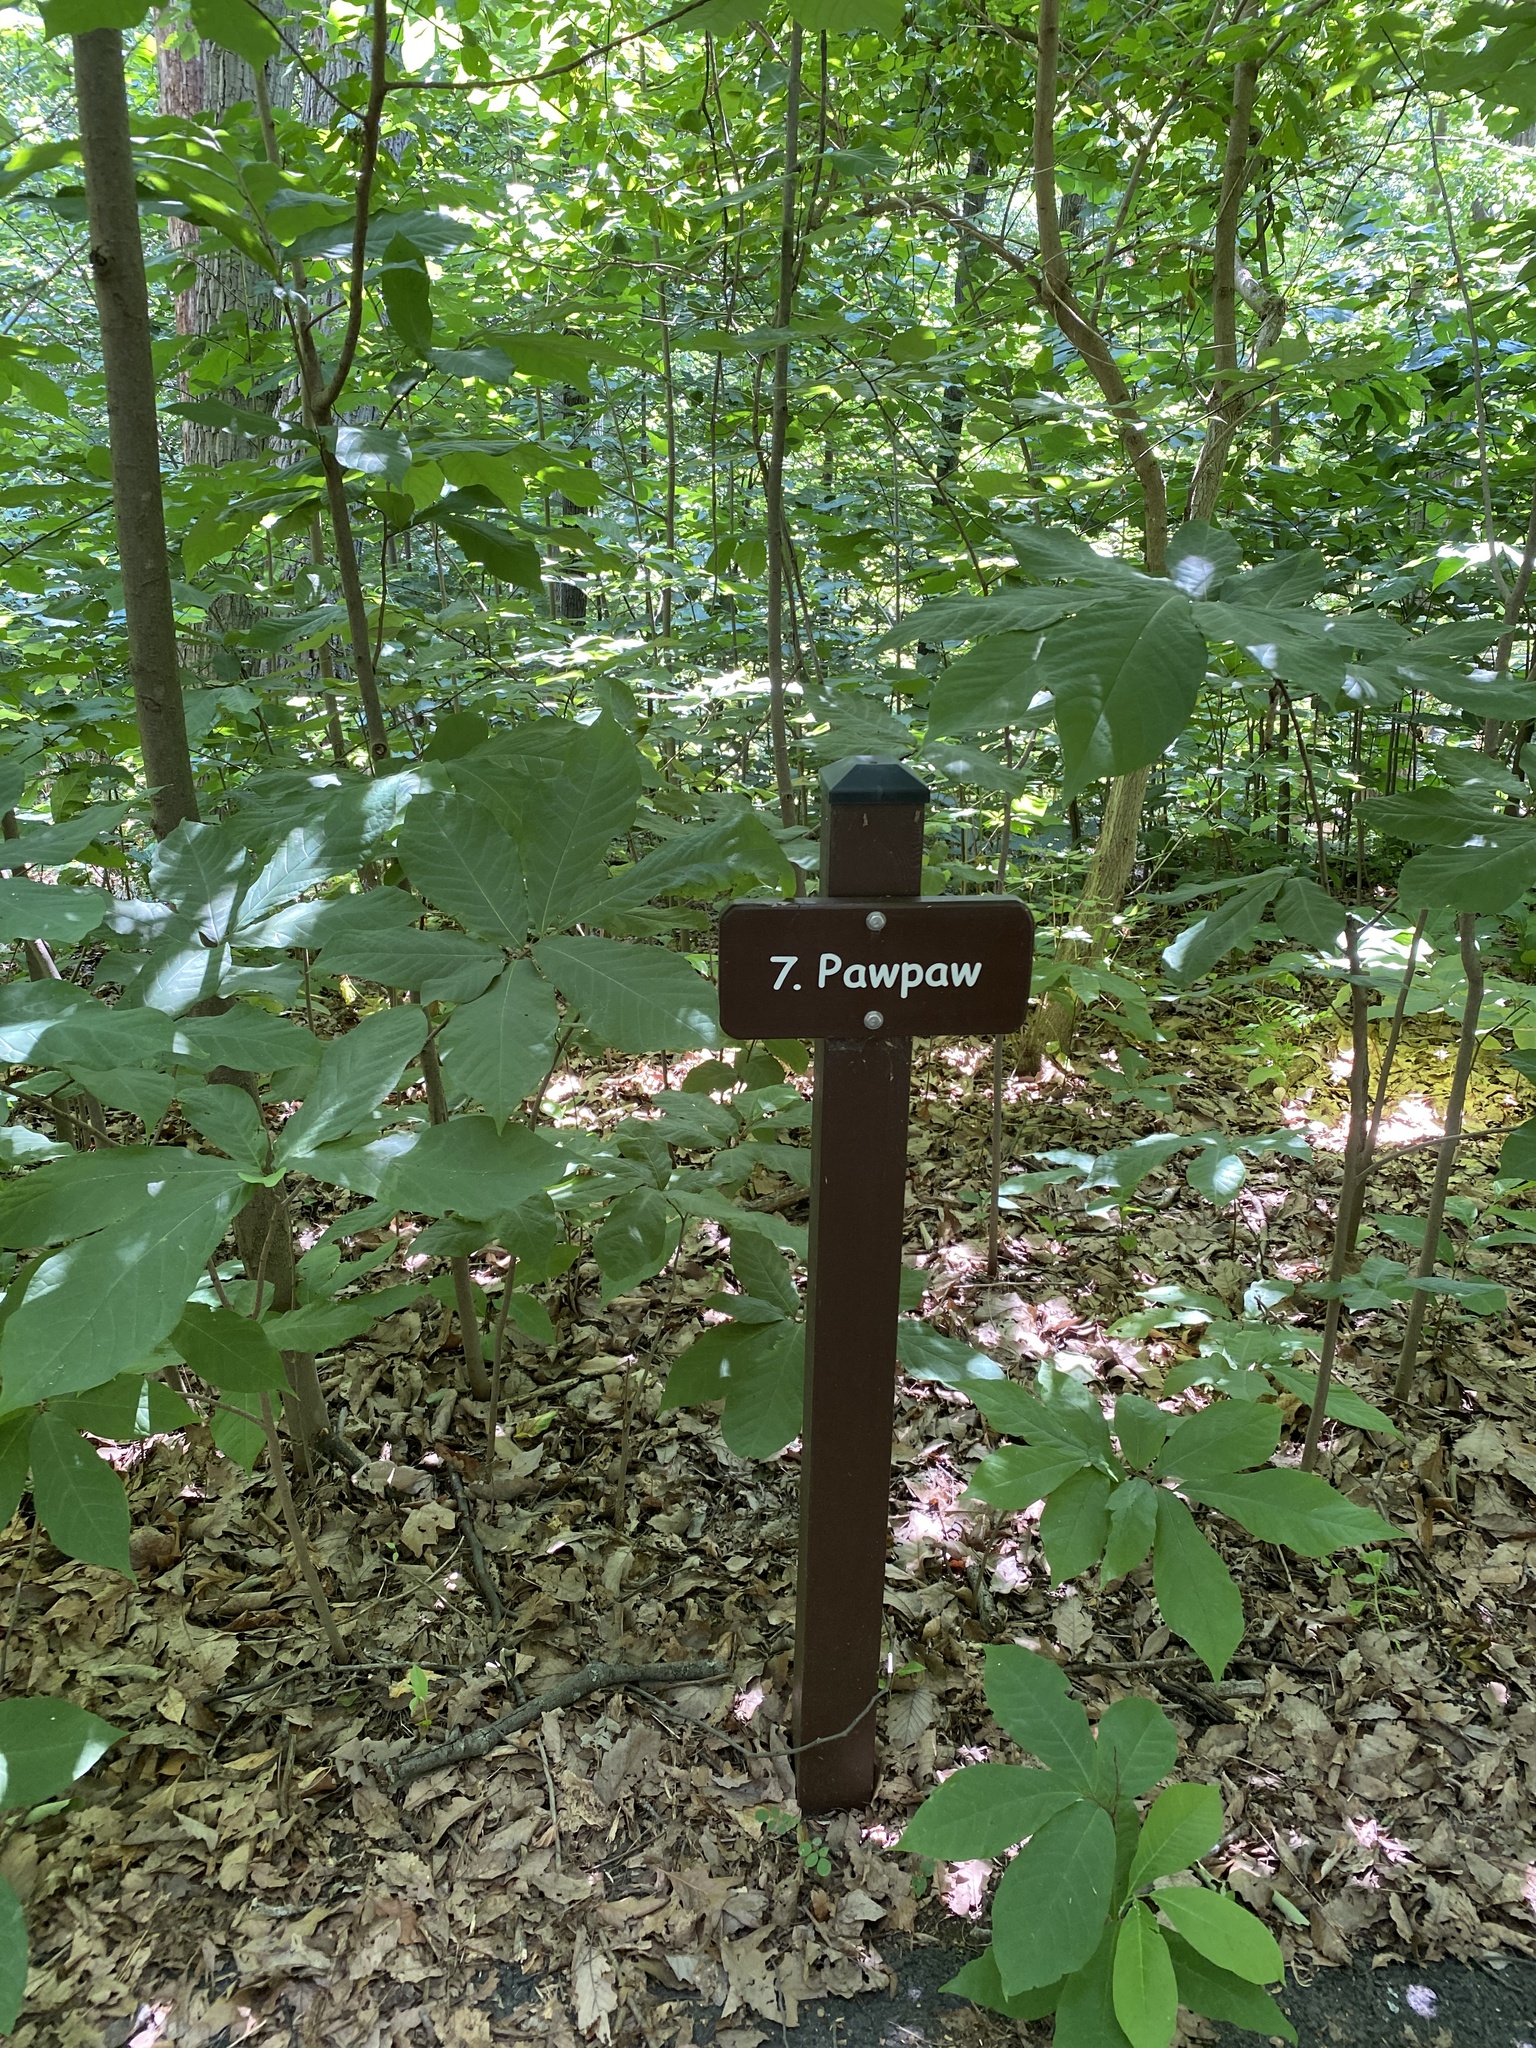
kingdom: Plantae
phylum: Tracheophyta
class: Magnoliopsida
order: Magnoliales
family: Annonaceae
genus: Asimina
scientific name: Asimina triloba
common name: Dog-banana
